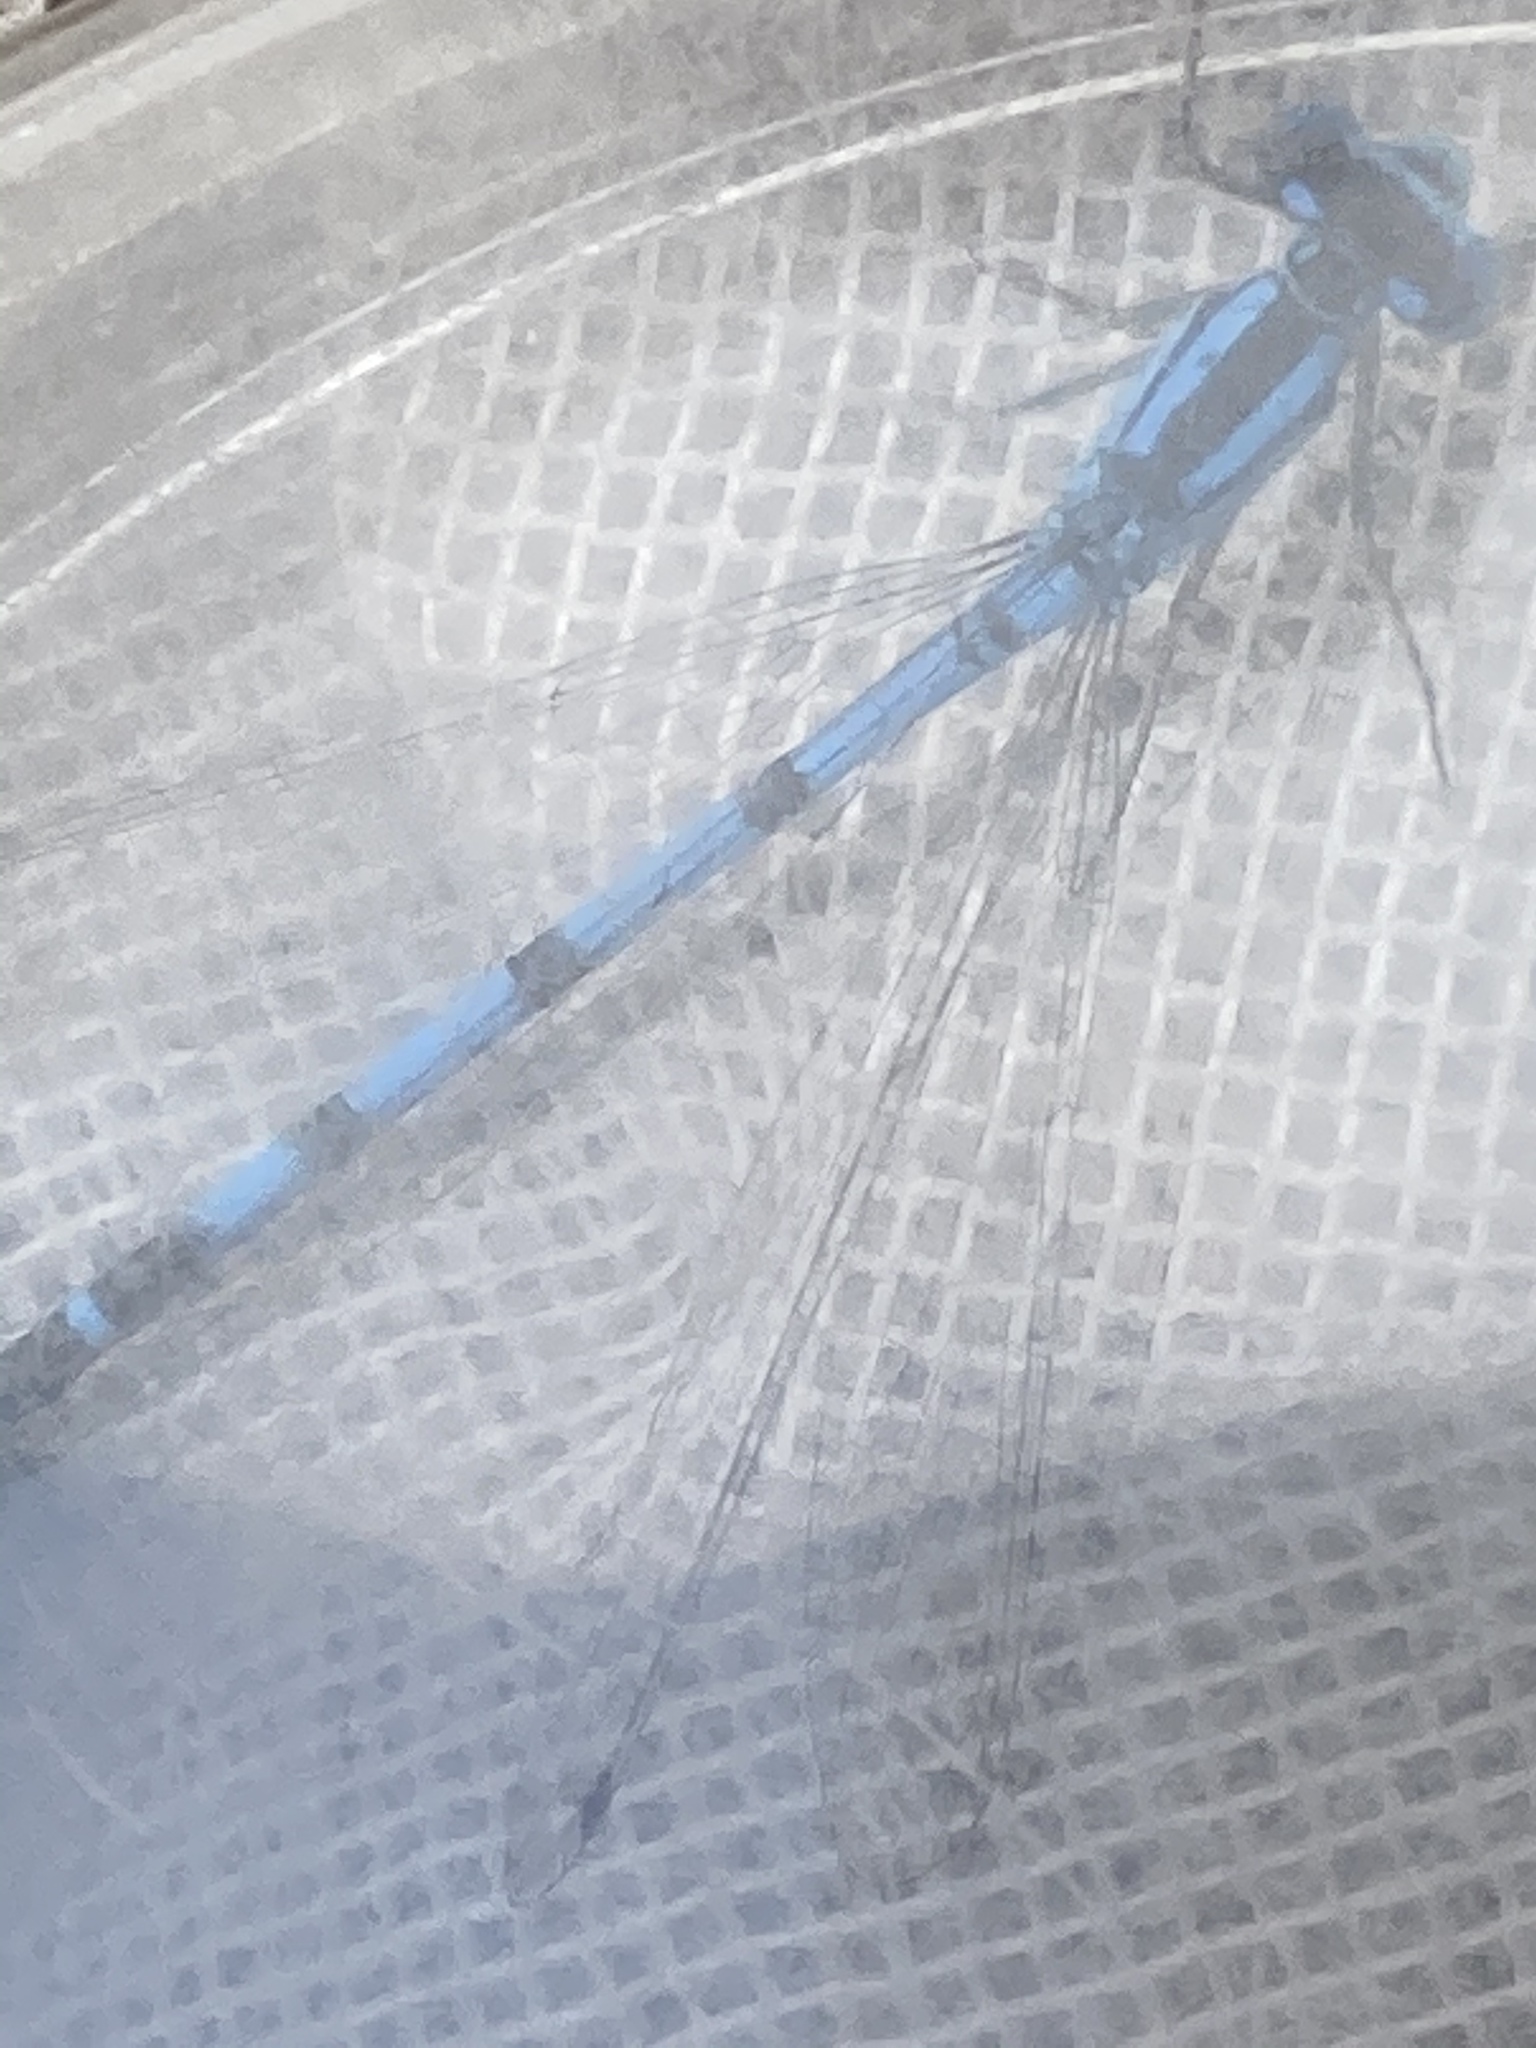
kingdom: Animalia
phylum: Arthropoda
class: Insecta
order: Odonata
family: Coenagrionidae
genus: Enallagma
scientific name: Enallagma cyathigerum
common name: Common blue damselfly
